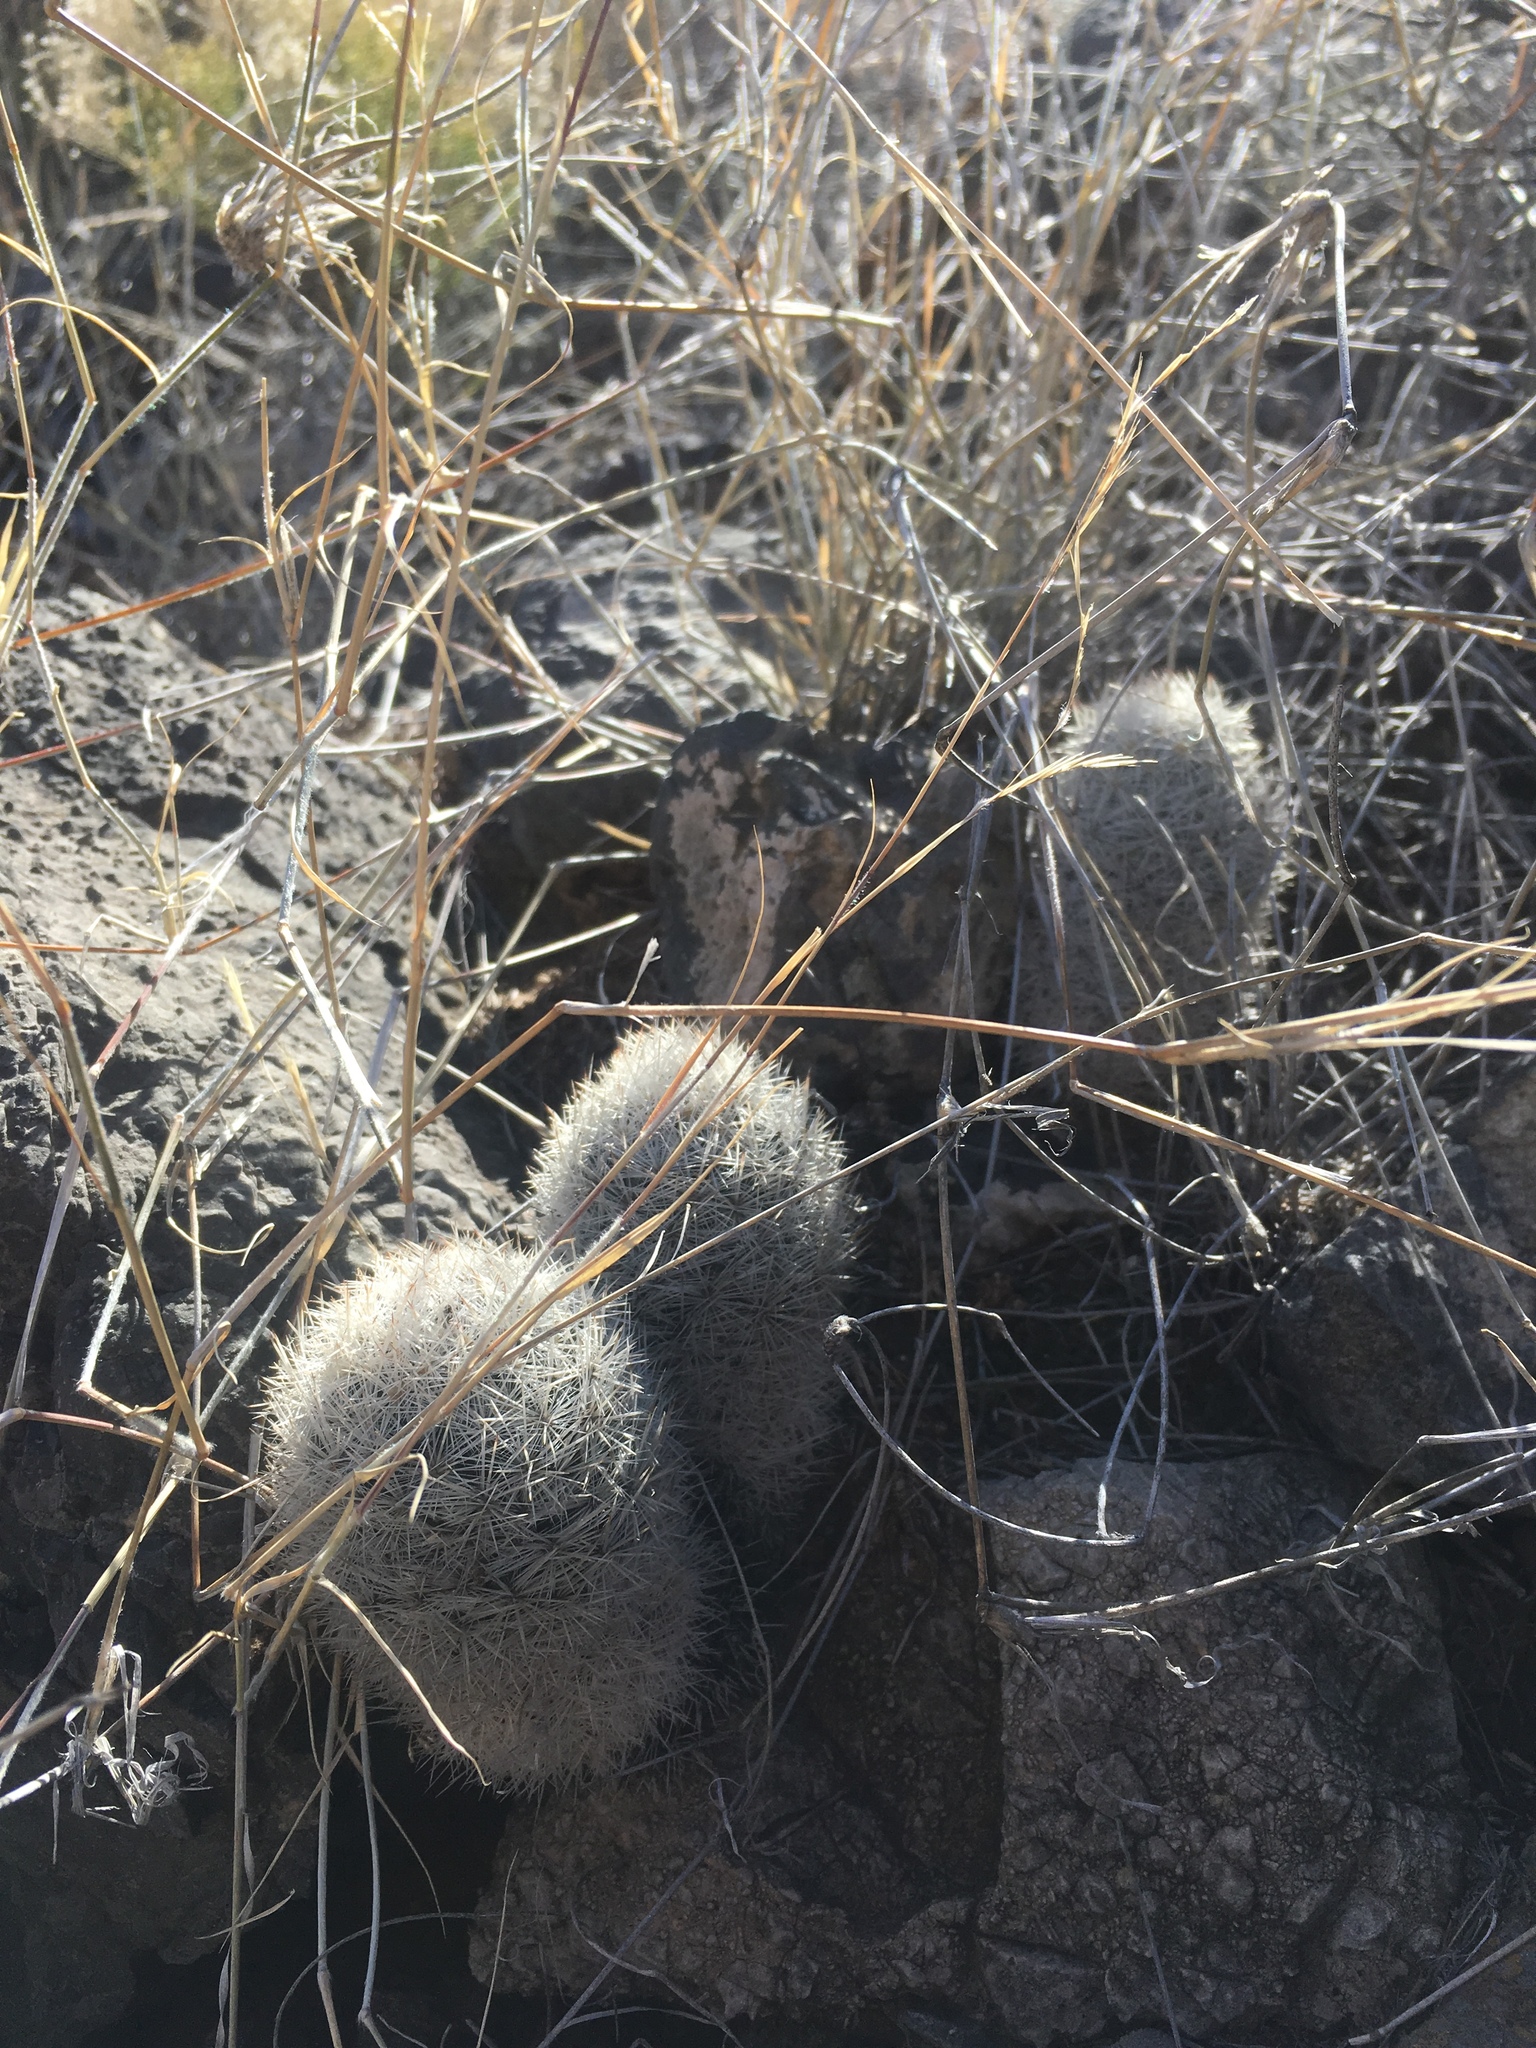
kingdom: Plantae
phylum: Tracheophyta
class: Magnoliopsida
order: Caryophyllales
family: Cactaceae
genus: Pelecyphora
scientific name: Pelecyphora sneedii
